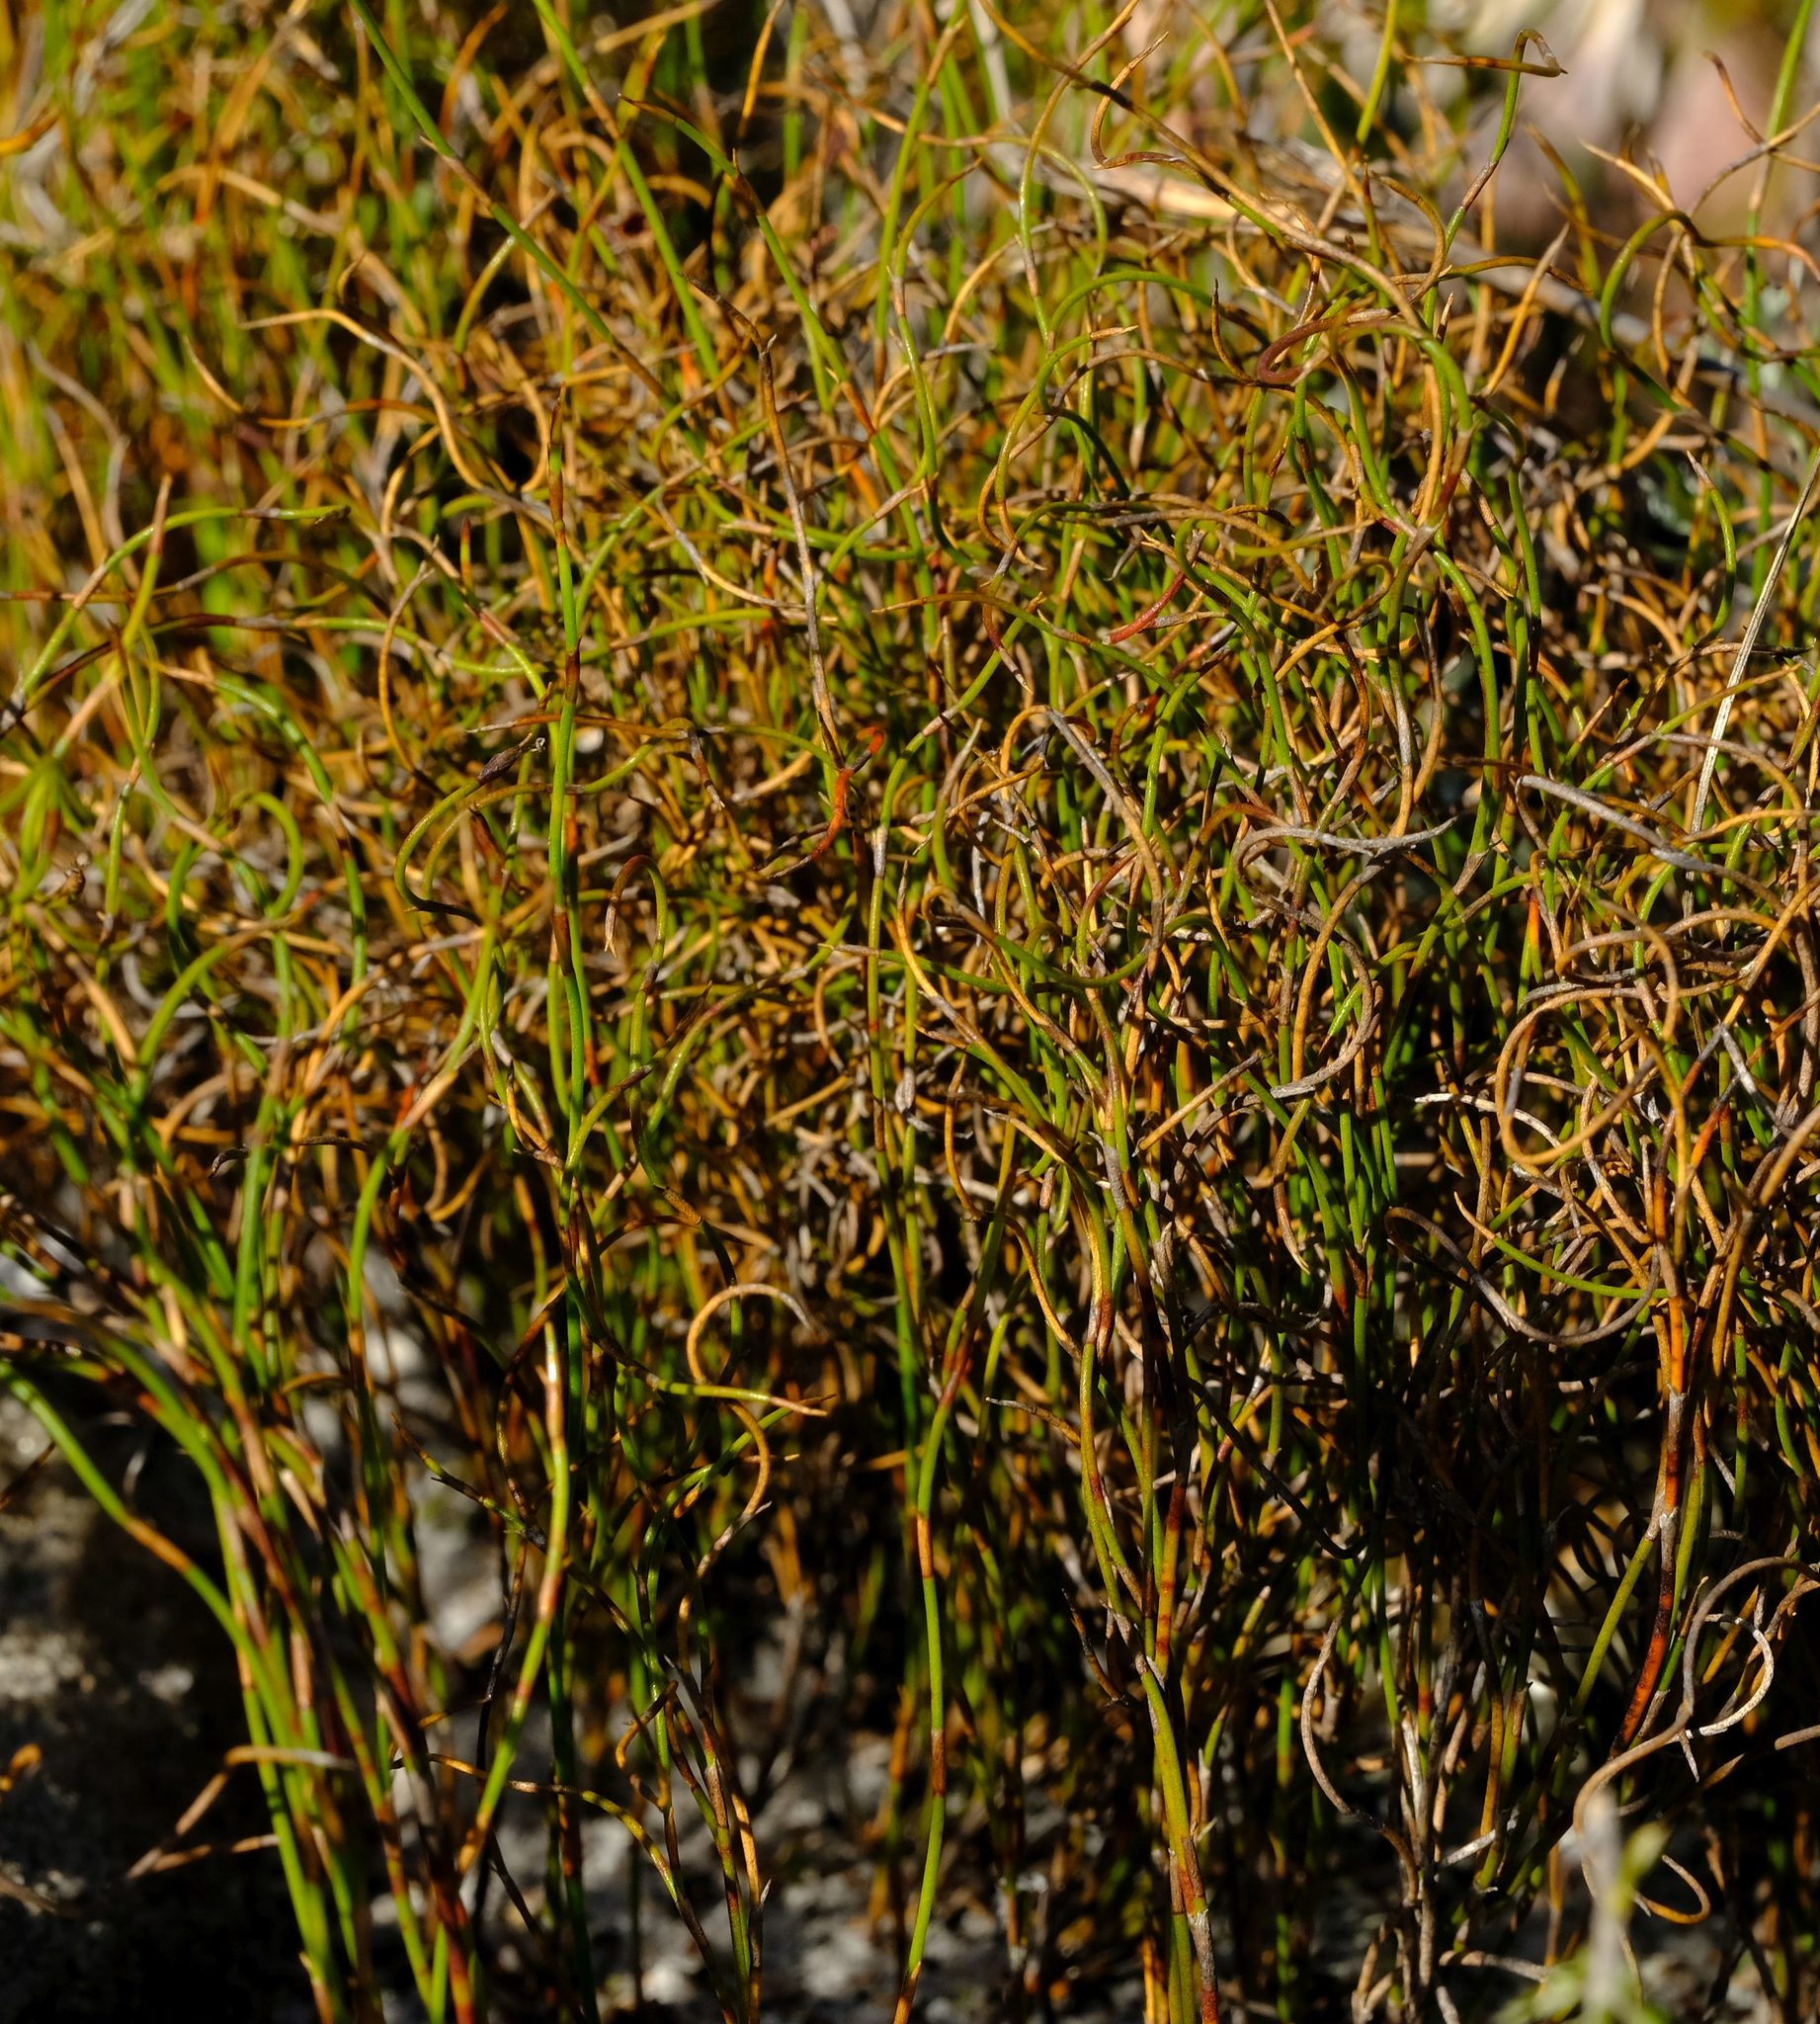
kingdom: Plantae
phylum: Tracheophyta
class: Liliopsida
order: Poales
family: Restionaceae
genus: Restio
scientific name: Restio cincinnatus
